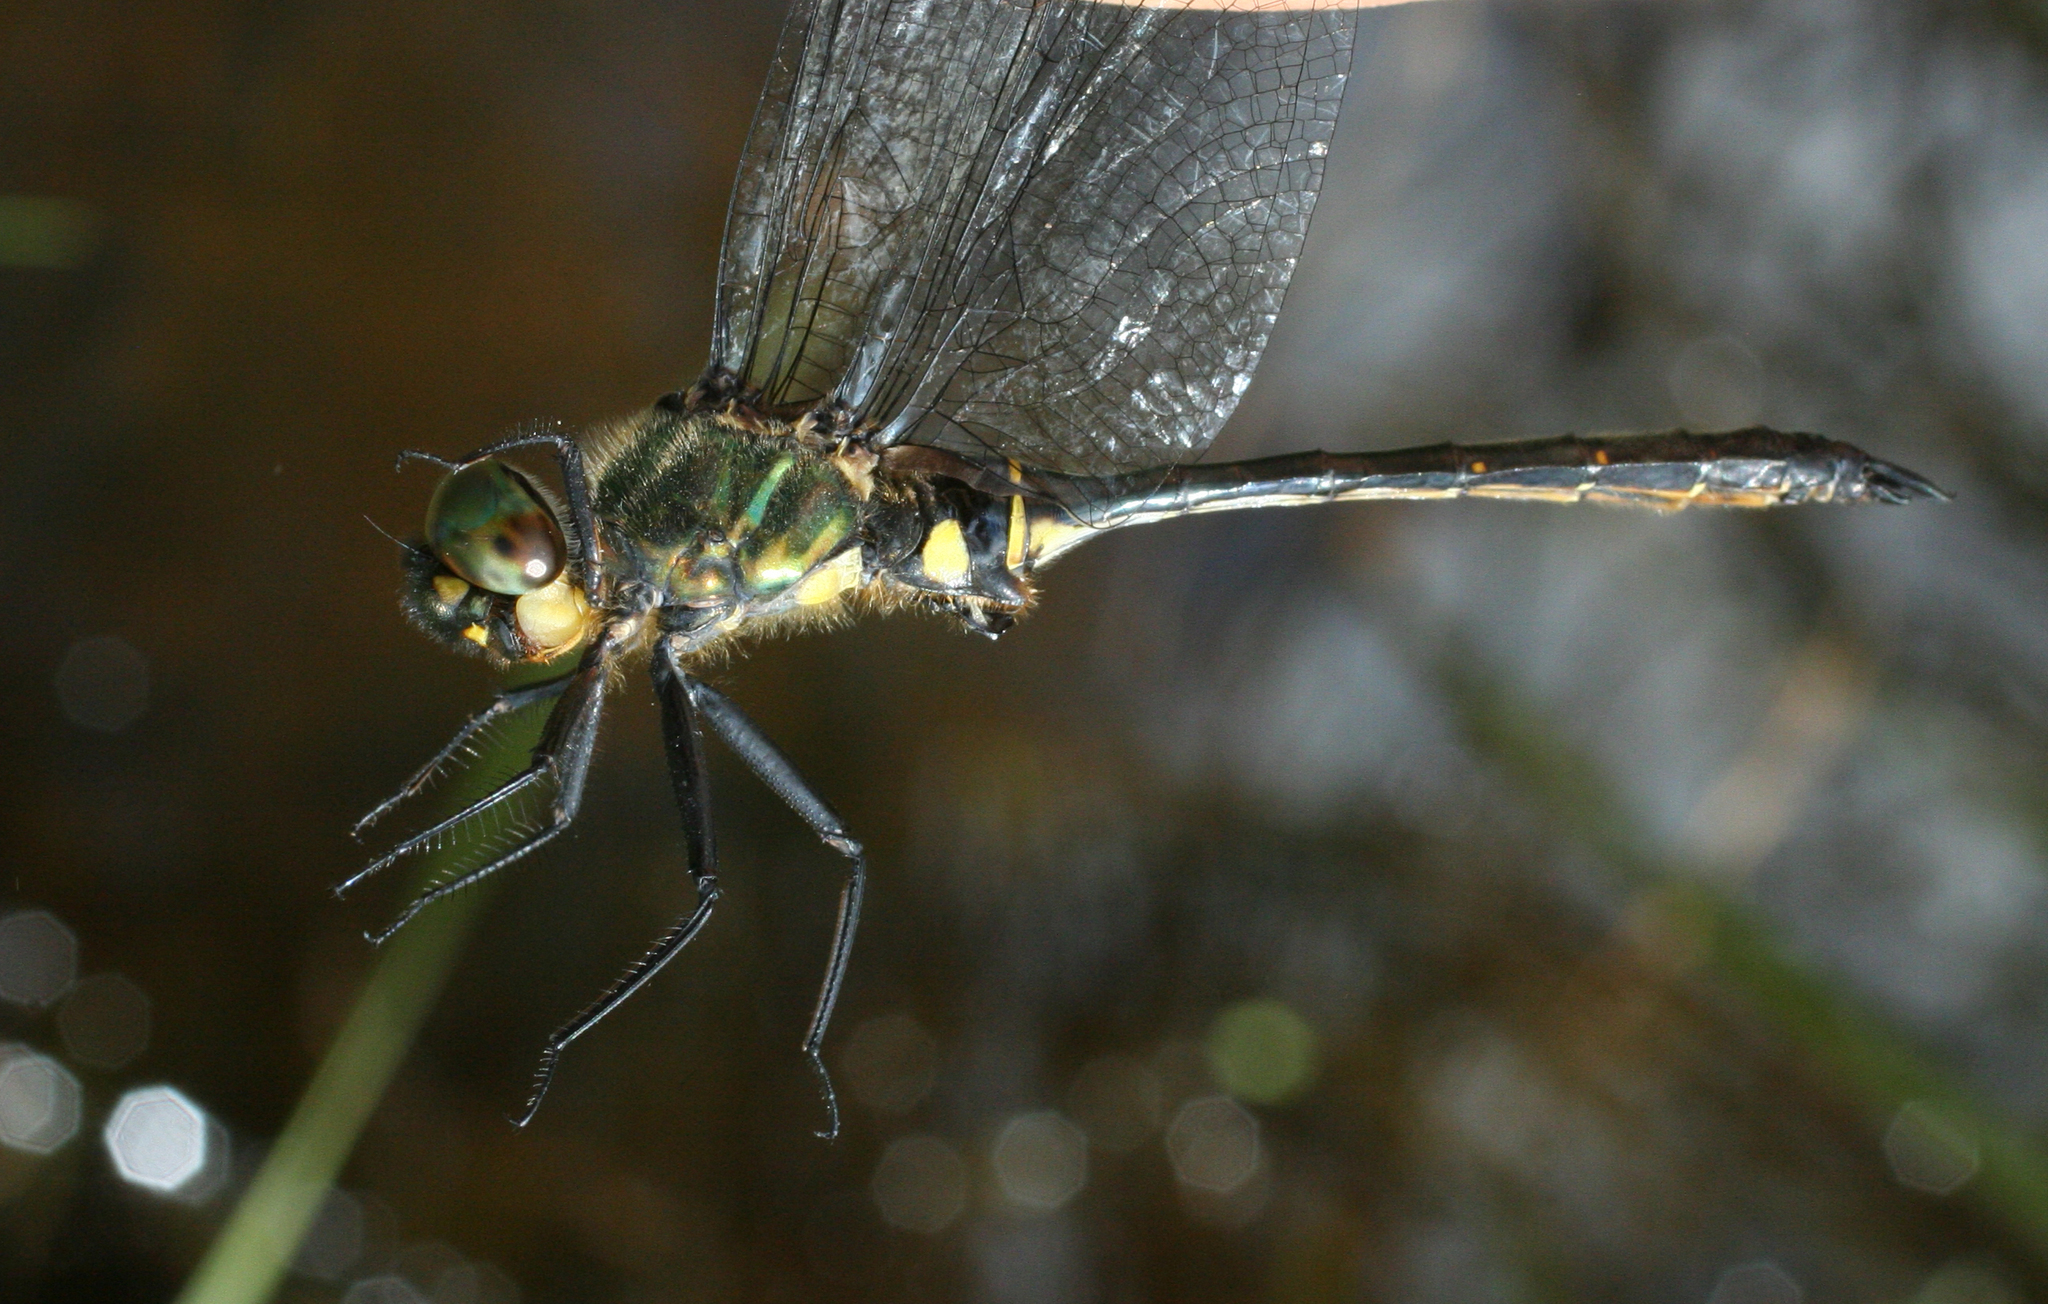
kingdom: Animalia
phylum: Arthropoda
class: Insecta
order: Odonata
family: Corduliidae
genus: Somatochlora
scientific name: Somatochlora viridiaenea
